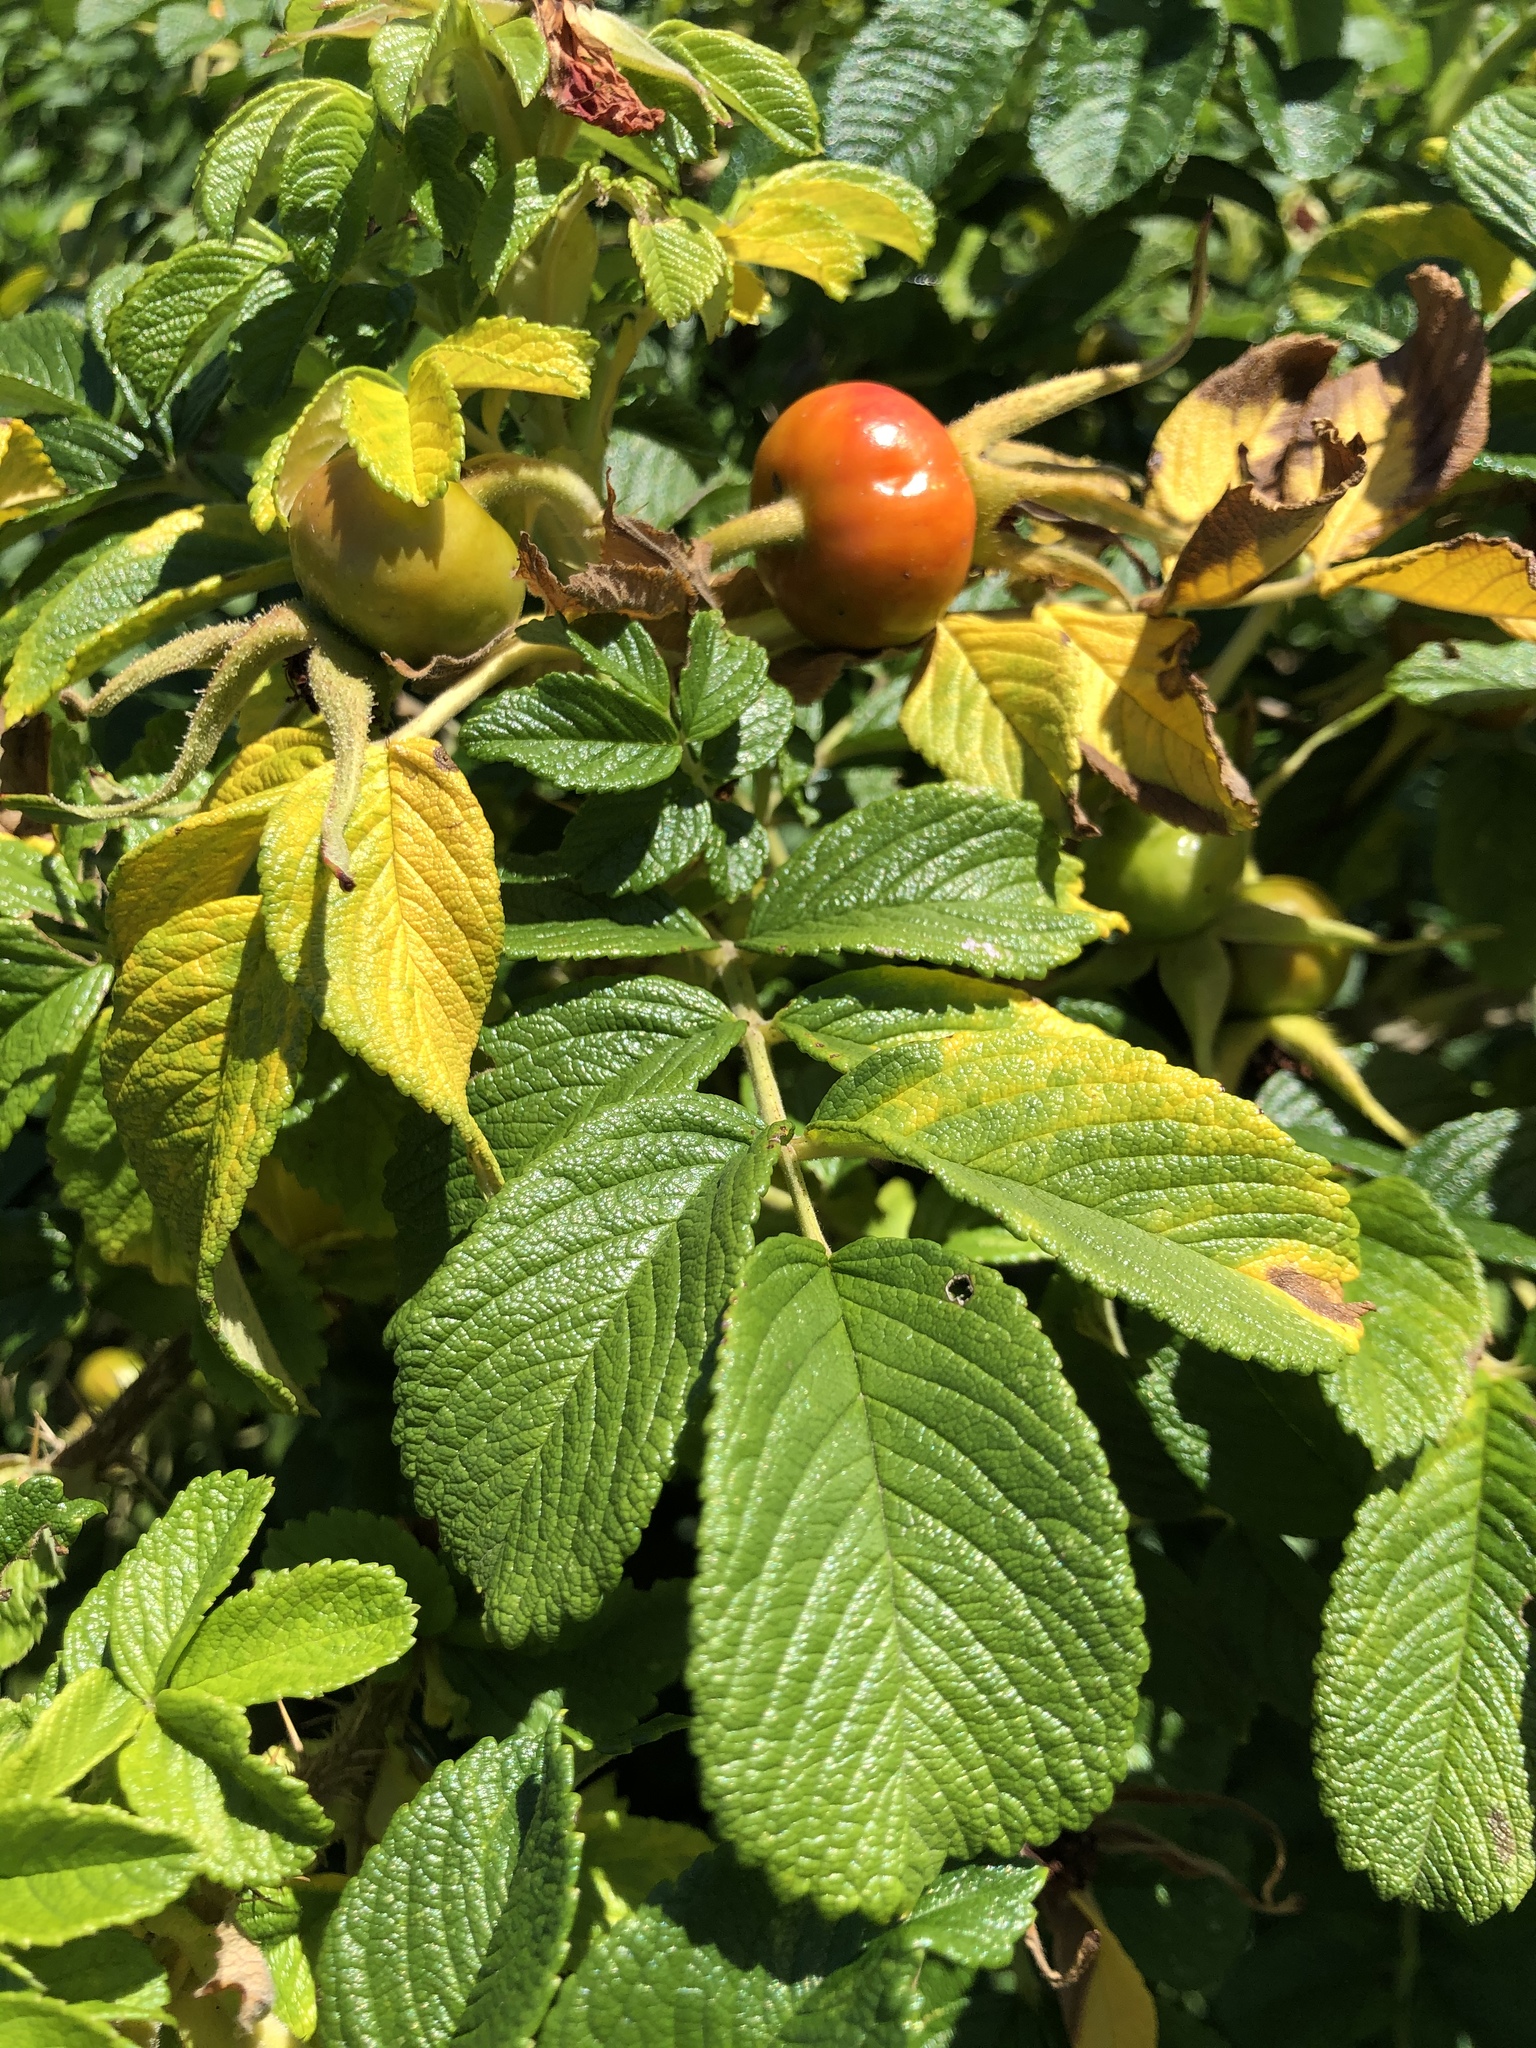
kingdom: Plantae
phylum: Tracheophyta
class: Magnoliopsida
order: Rosales
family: Rosaceae
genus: Rosa
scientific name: Rosa rugosa
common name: Japanese rose
